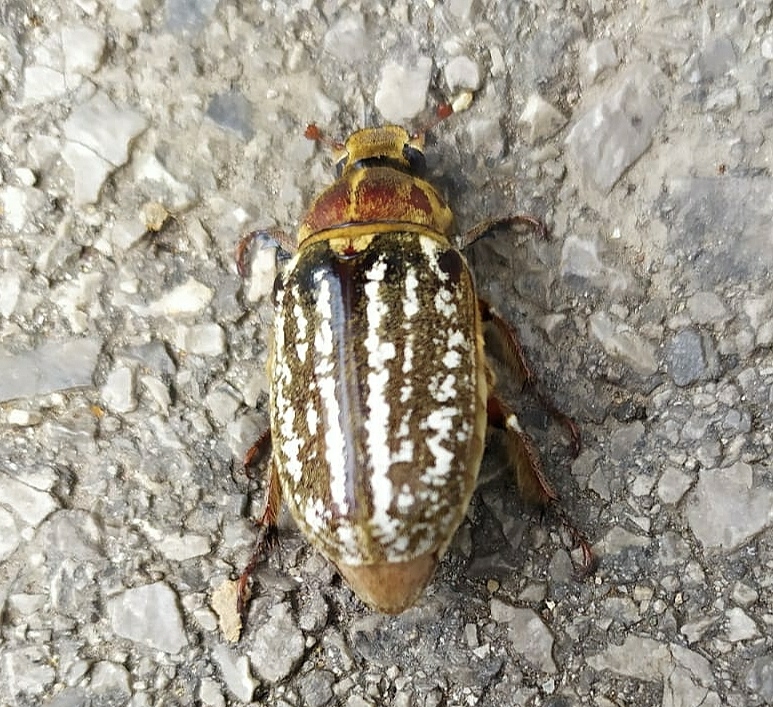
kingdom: Animalia
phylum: Arthropoda
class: Insecta
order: Coleoptera
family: Scarabaeidae
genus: Anoxia
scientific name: Anoxia orientalis
